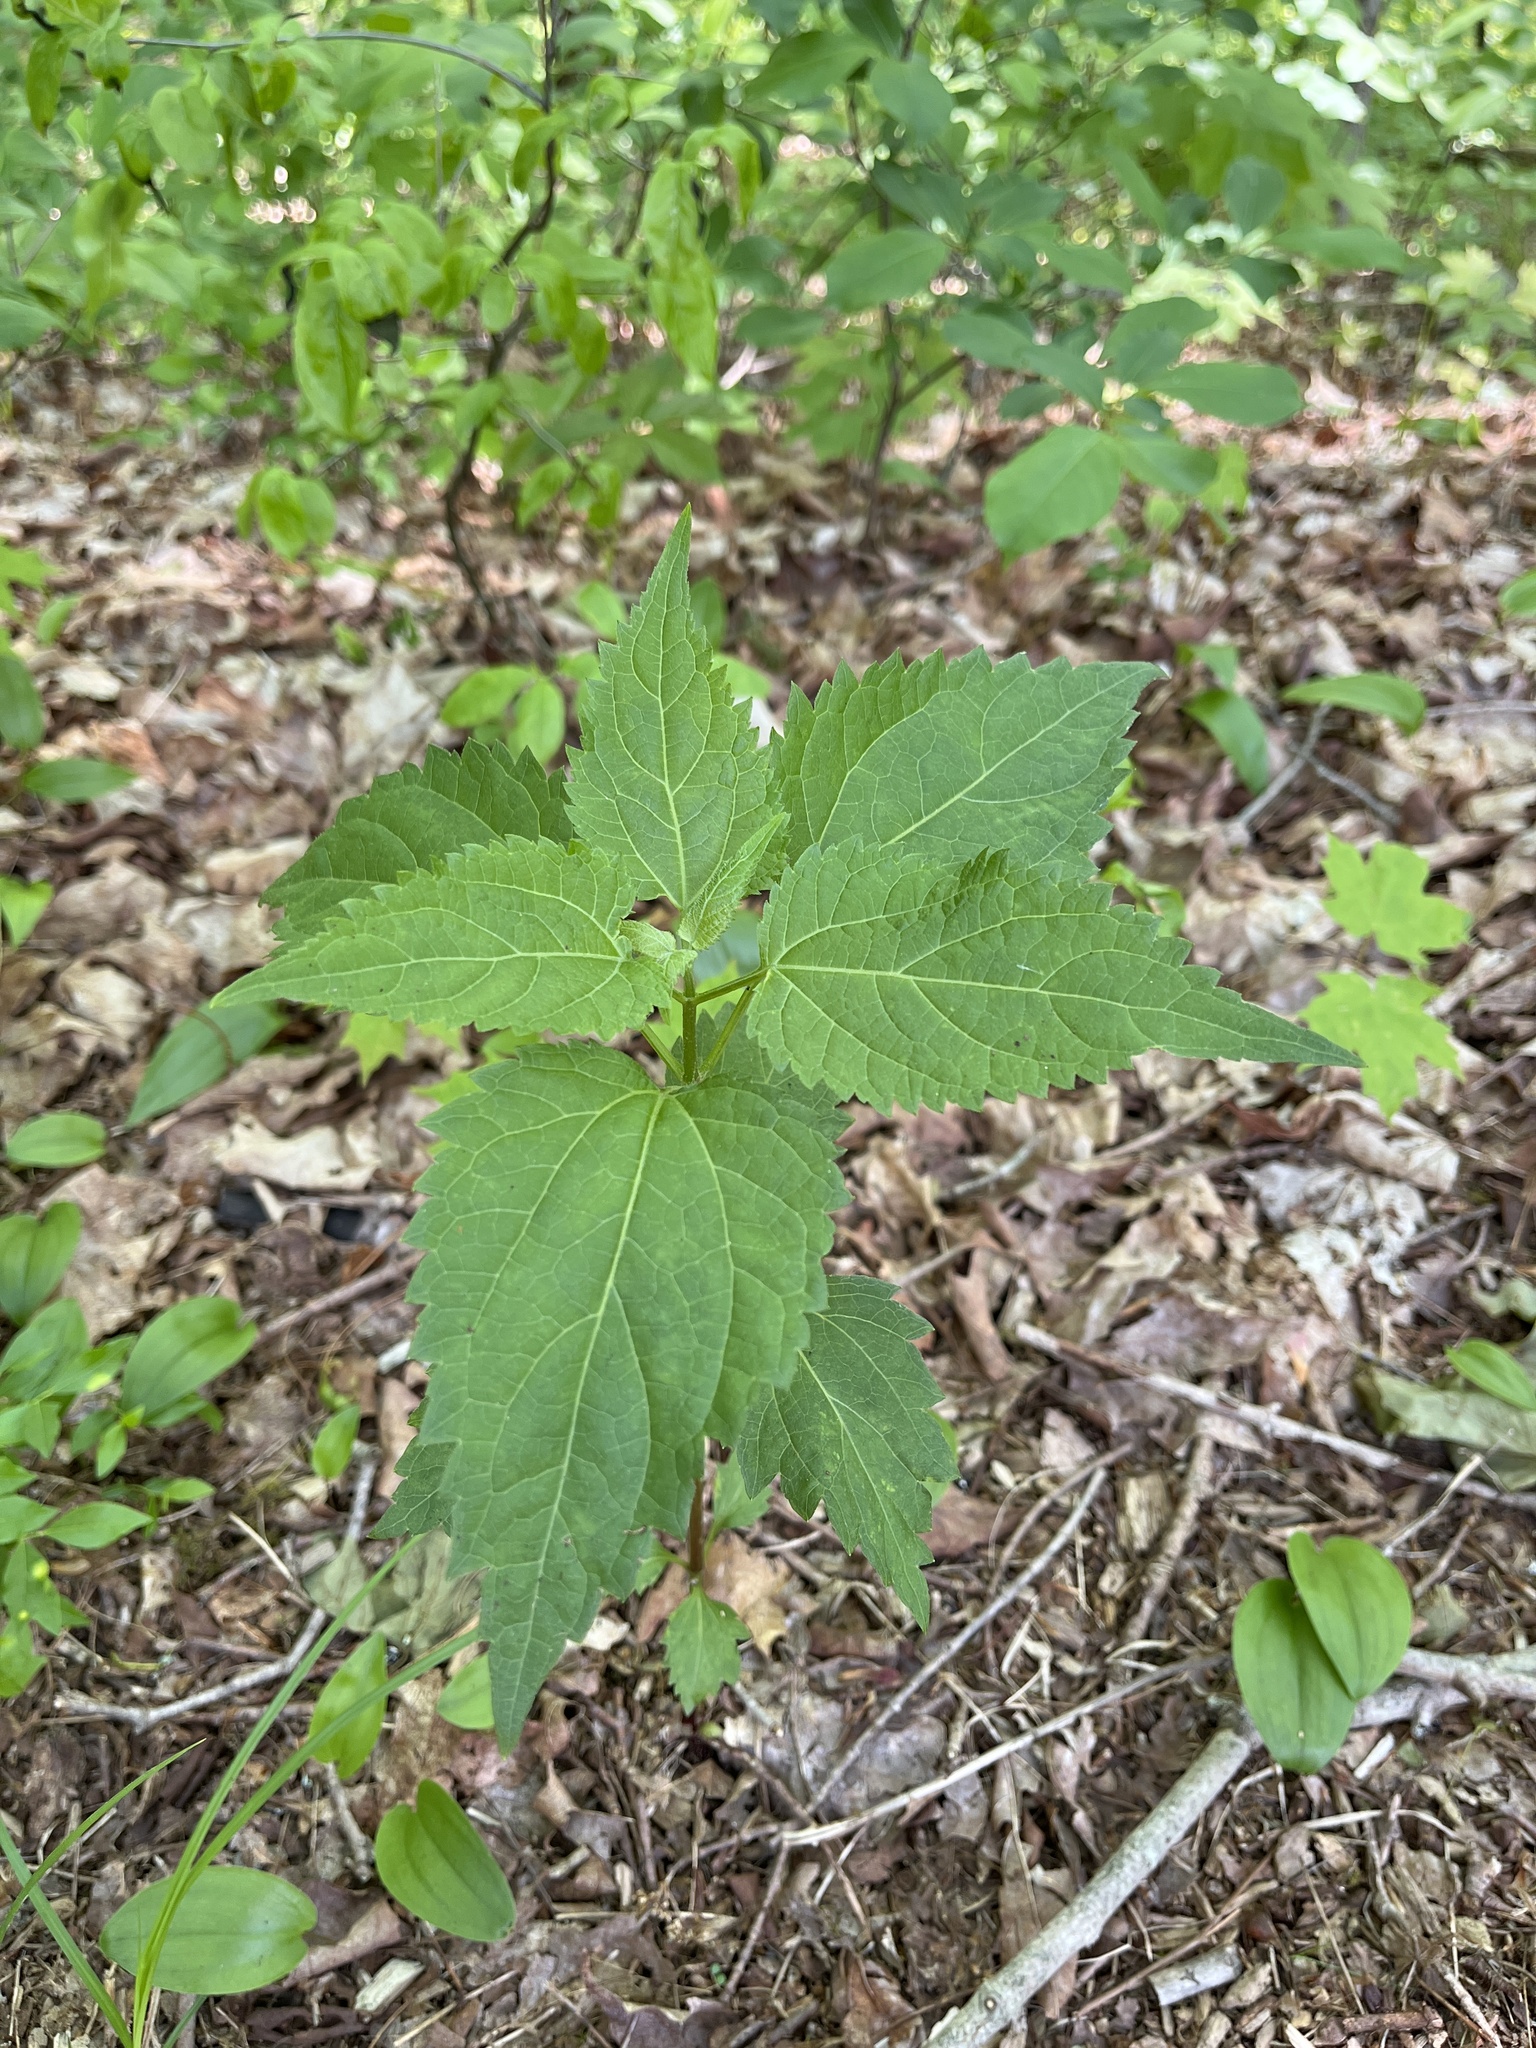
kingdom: Plantae
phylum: Tracheophyta
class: Magnoliopsida
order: Asterales
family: Asteraceae
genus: Ageratina
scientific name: Ageratina altissima
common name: White snakeroot
